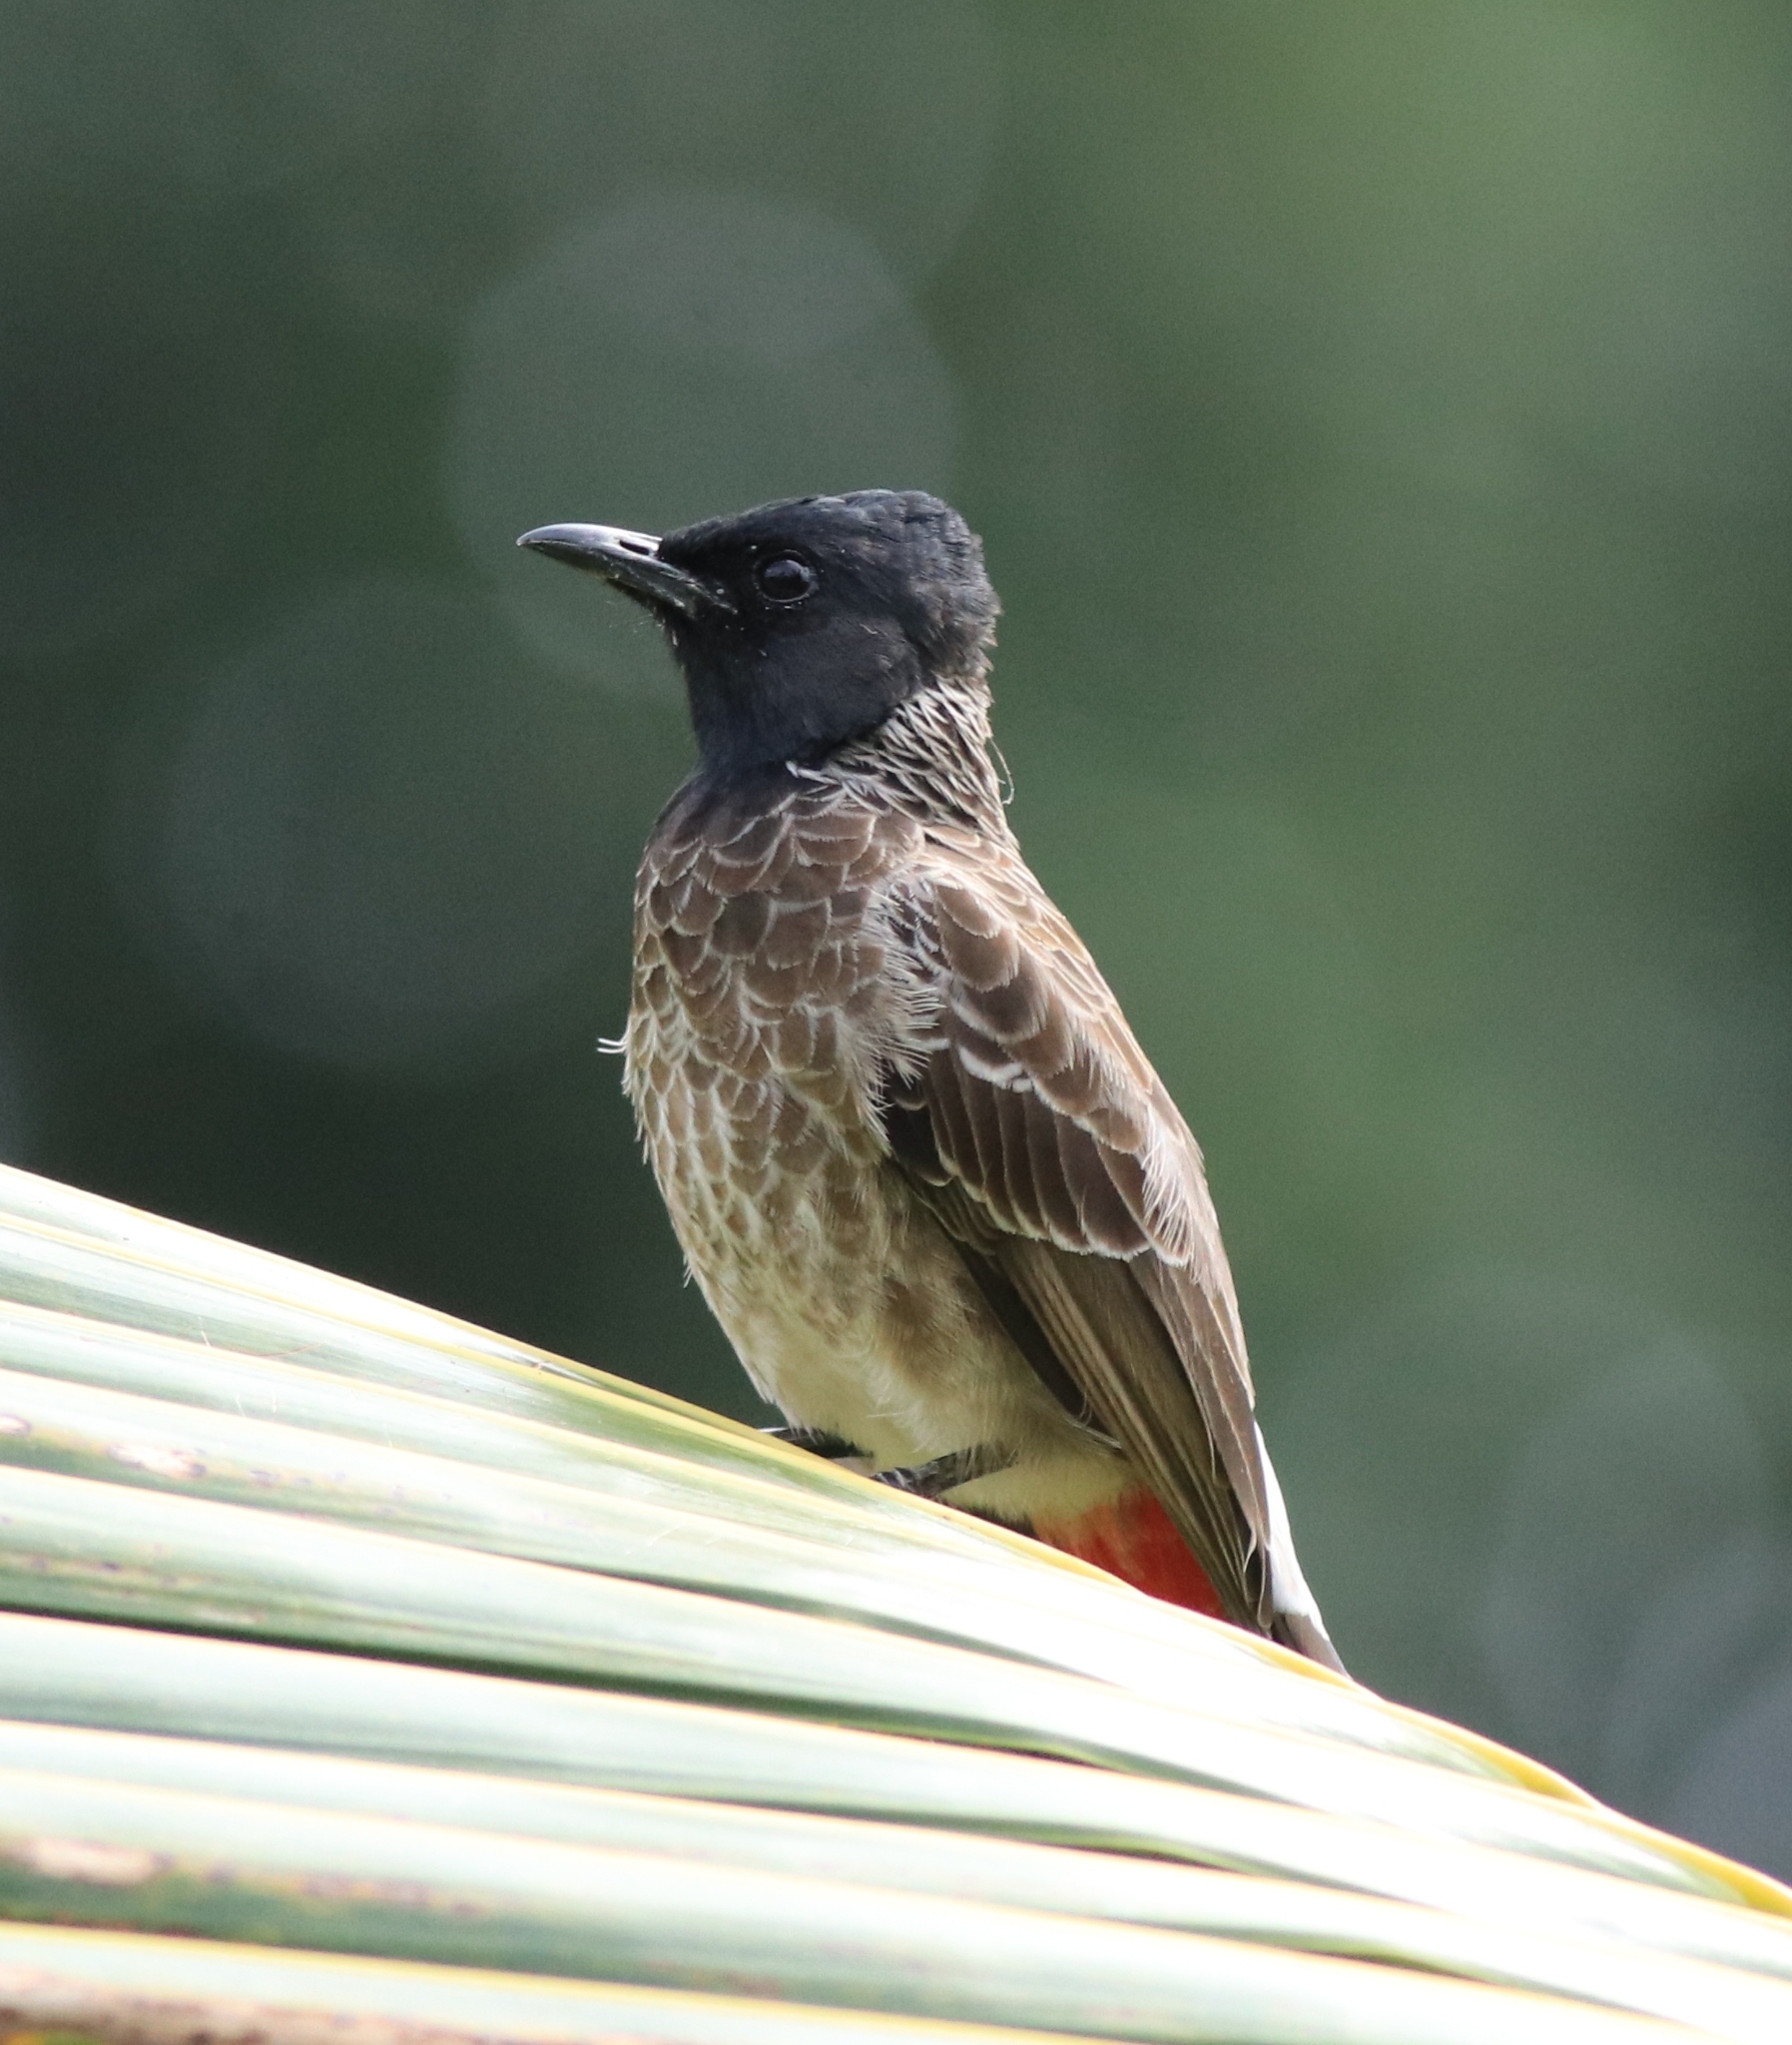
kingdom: Animalia
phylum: Chordata
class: Aves
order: Passeriformes
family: Pycnonotidae
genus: Pycnonotus
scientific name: Pycnonotus cafer
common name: Red-vented bulbul
